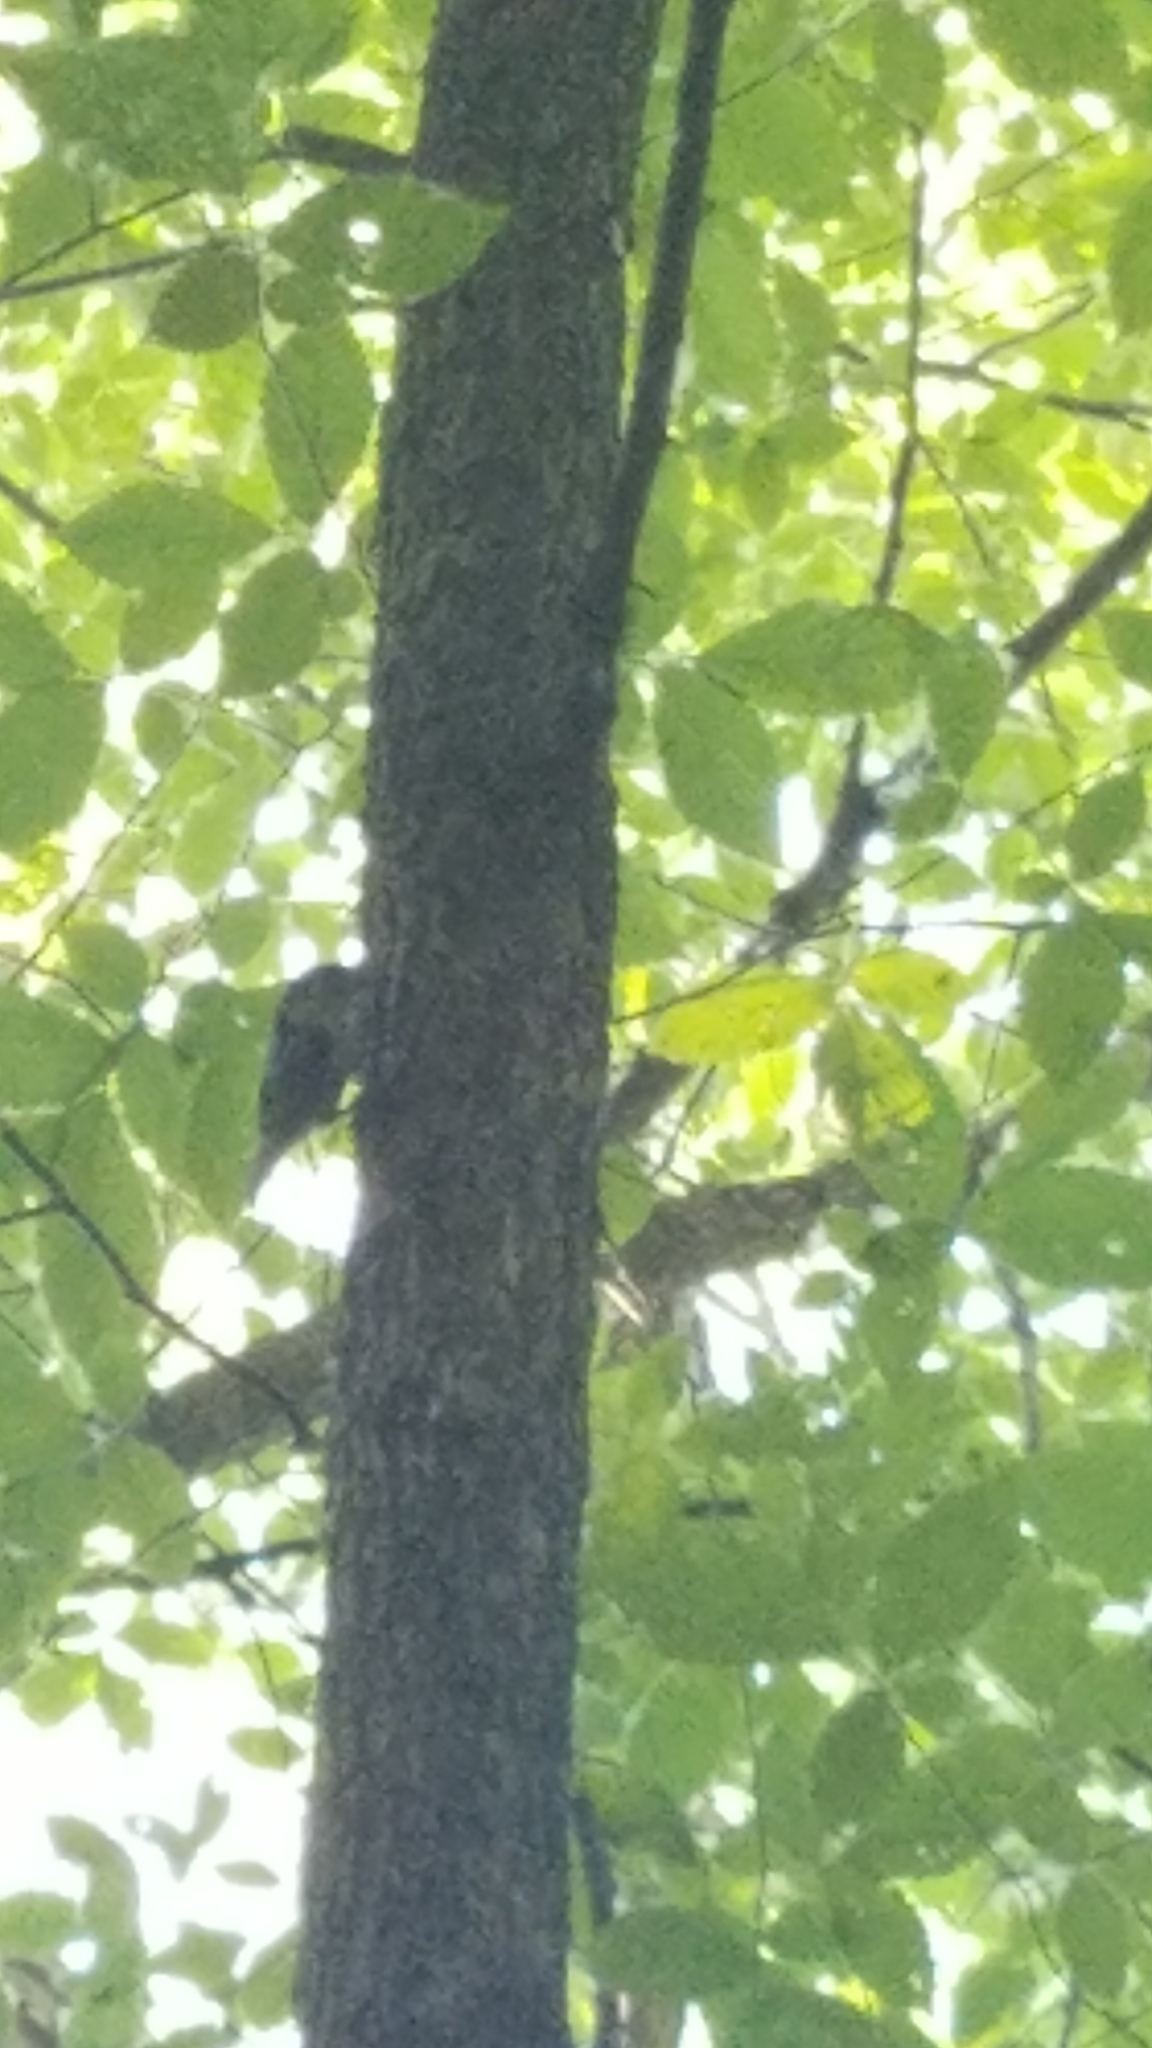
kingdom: Animalia
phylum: Chordata
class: Aves
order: Passeriformes
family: Sittidae
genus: Sitta
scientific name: Sitta carolinensis
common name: White-breasted nuthatch
